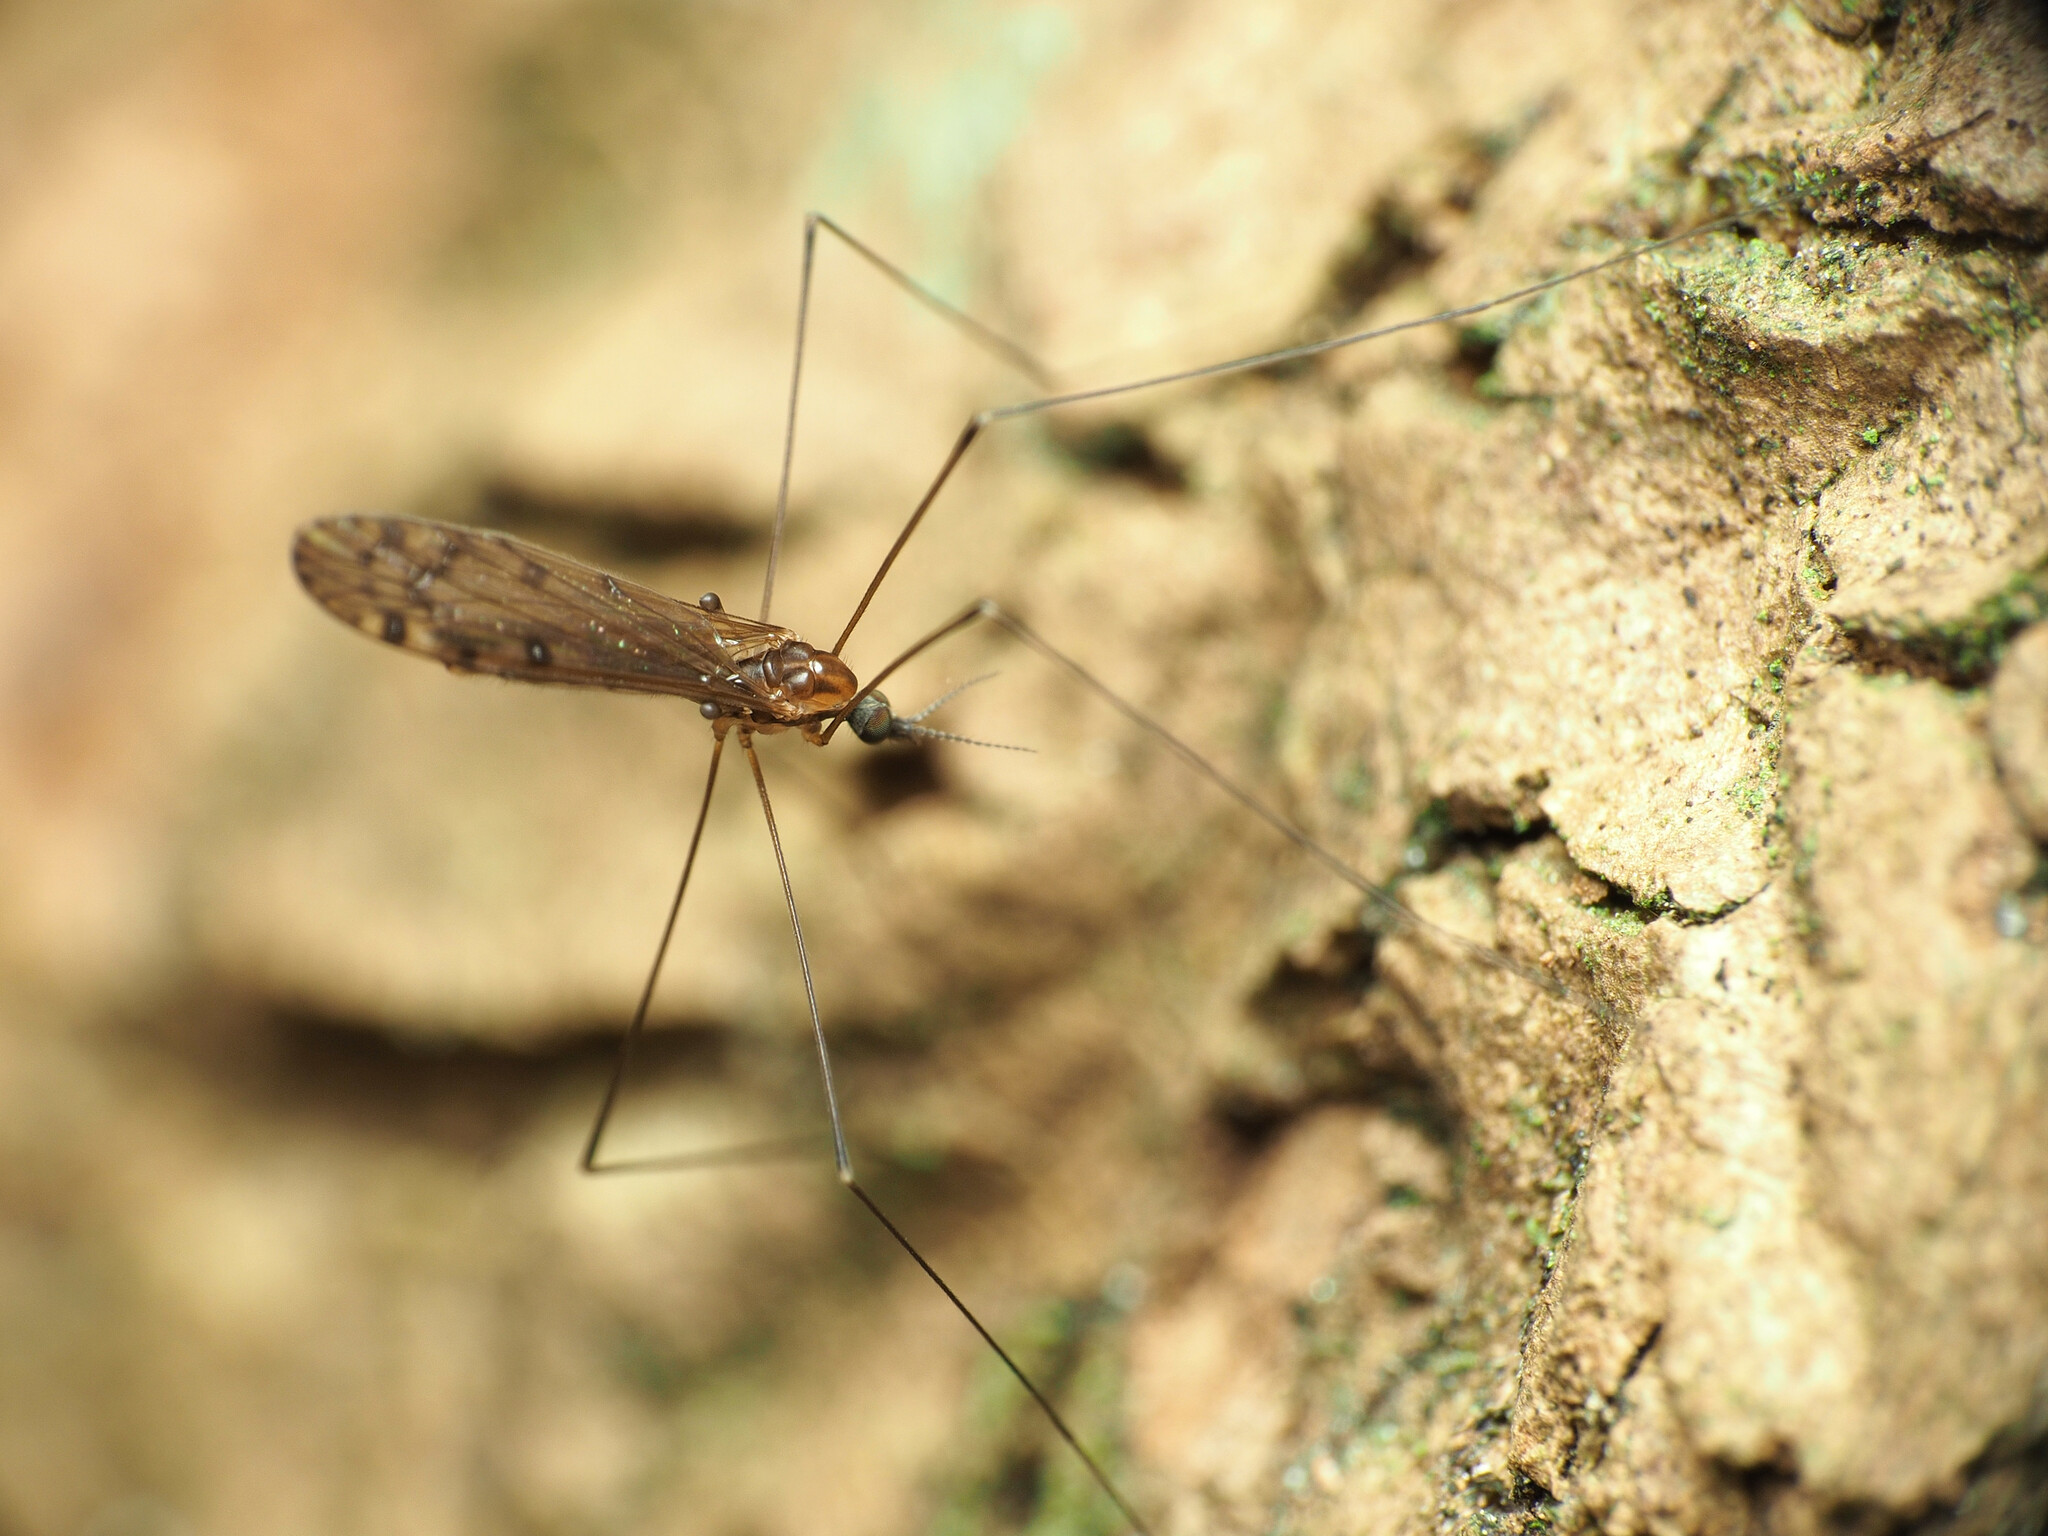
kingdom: Animalia
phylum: Arthropoda
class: Insecta
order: Diptera
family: Limoniidae
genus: Neolimonia
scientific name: Neolimonia rara
